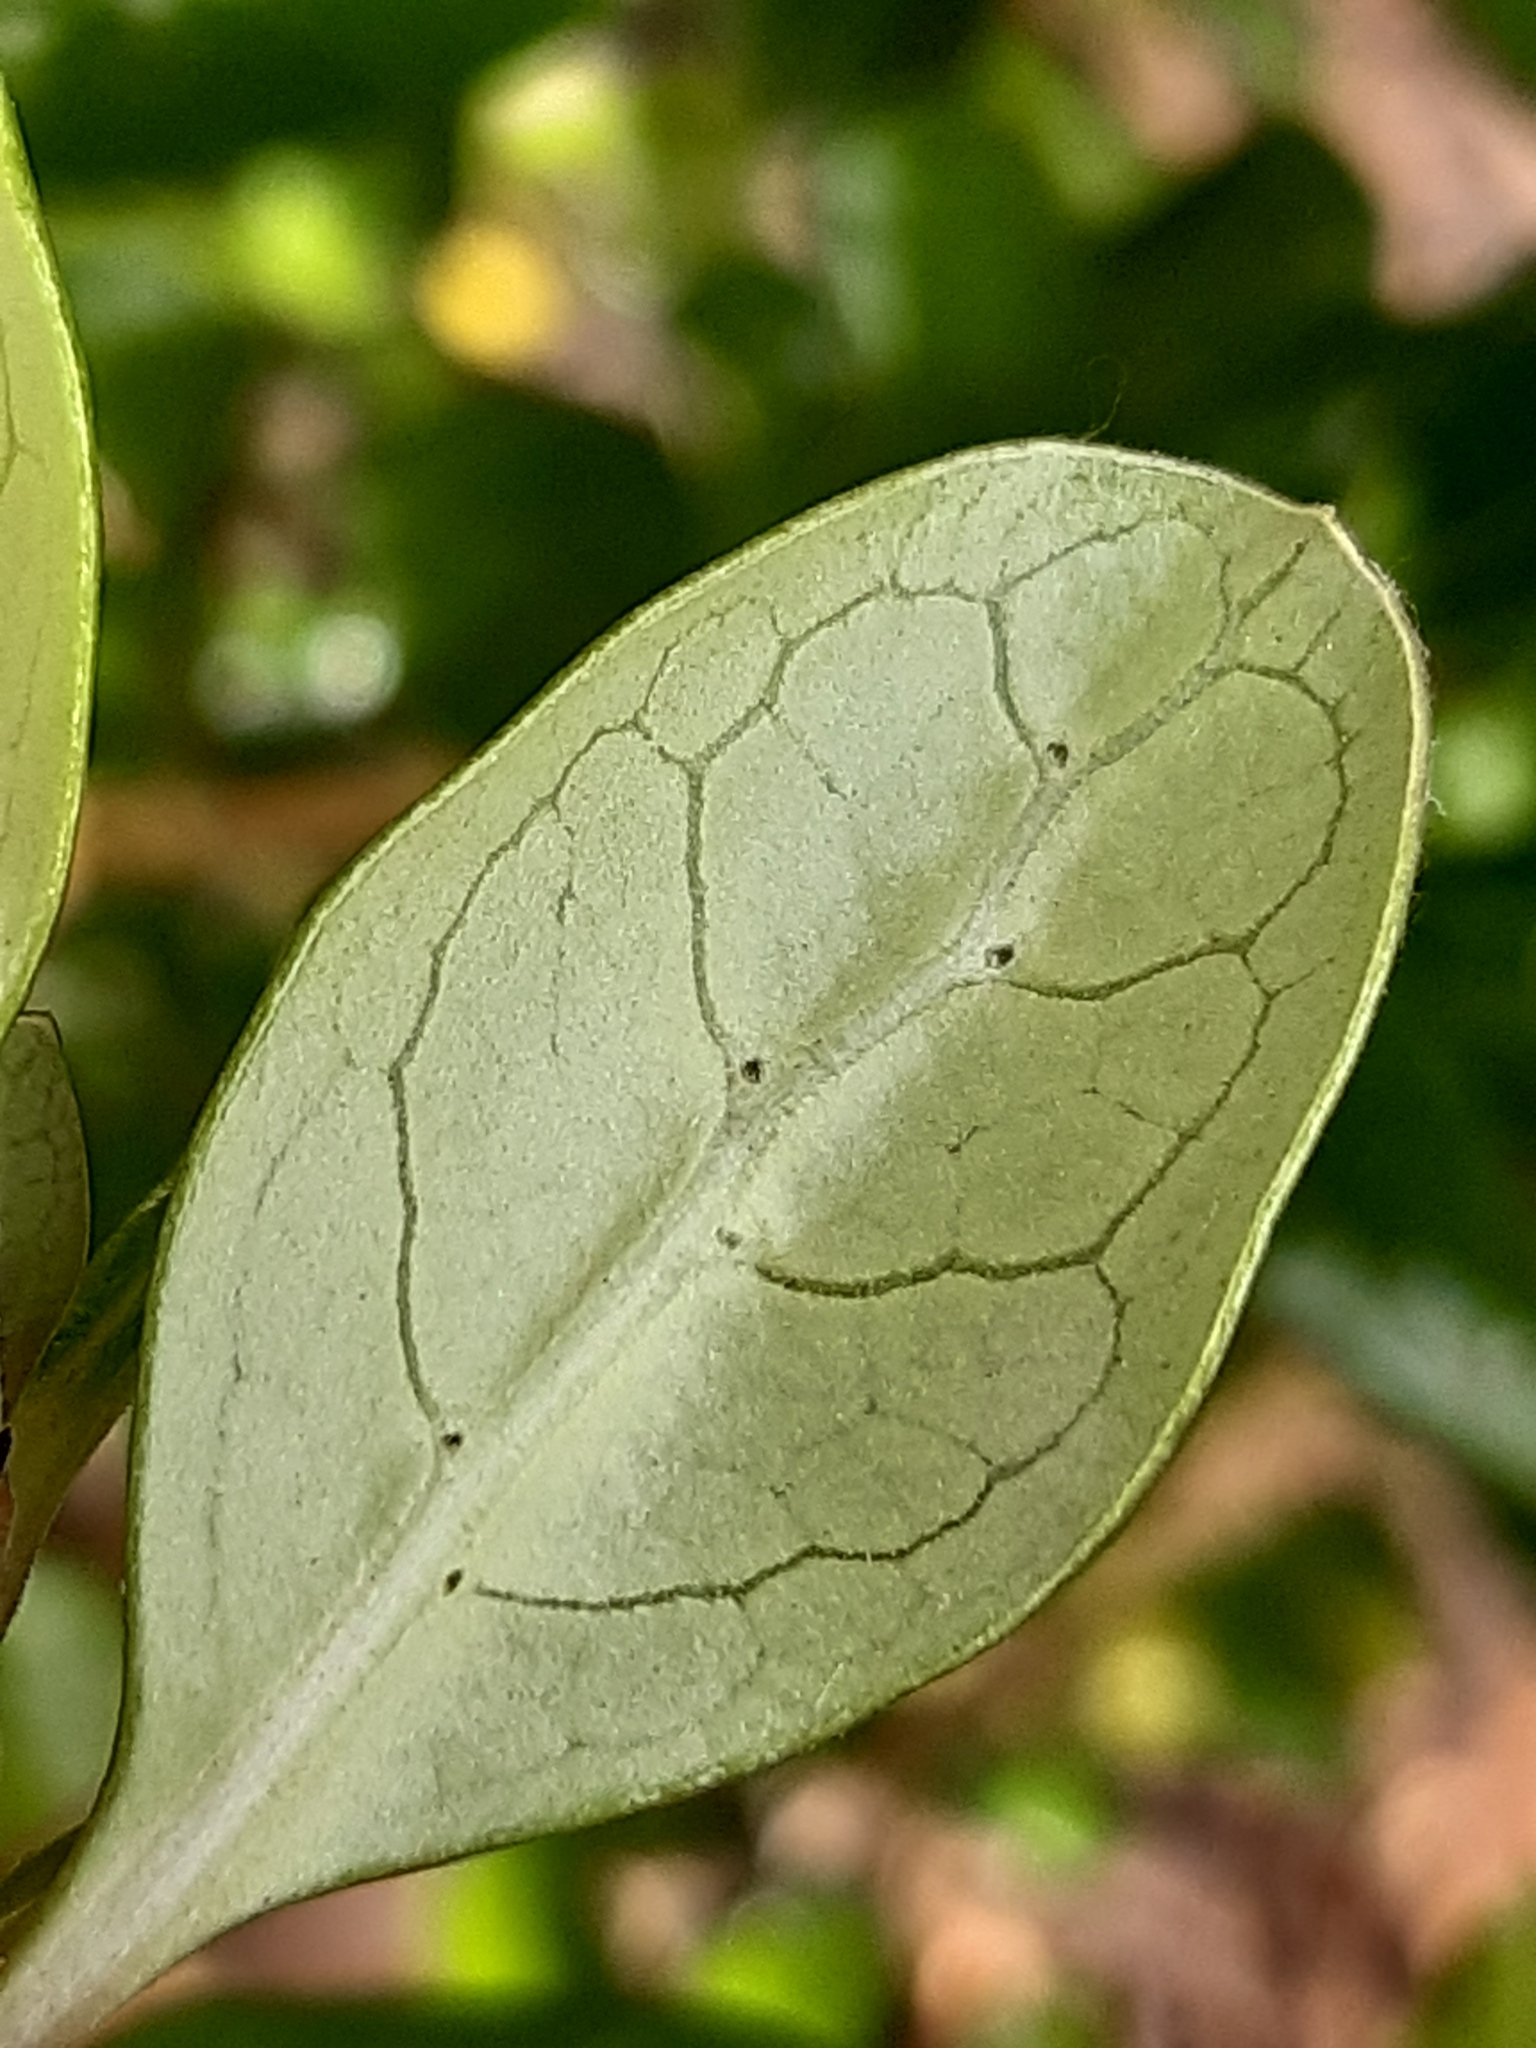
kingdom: Plantae
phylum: Tracheophyta
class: Magnoliopsida
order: Gentianales
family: Rubiaceae
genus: Coprosma
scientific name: Coprosma repens
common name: Tree bedstraw
